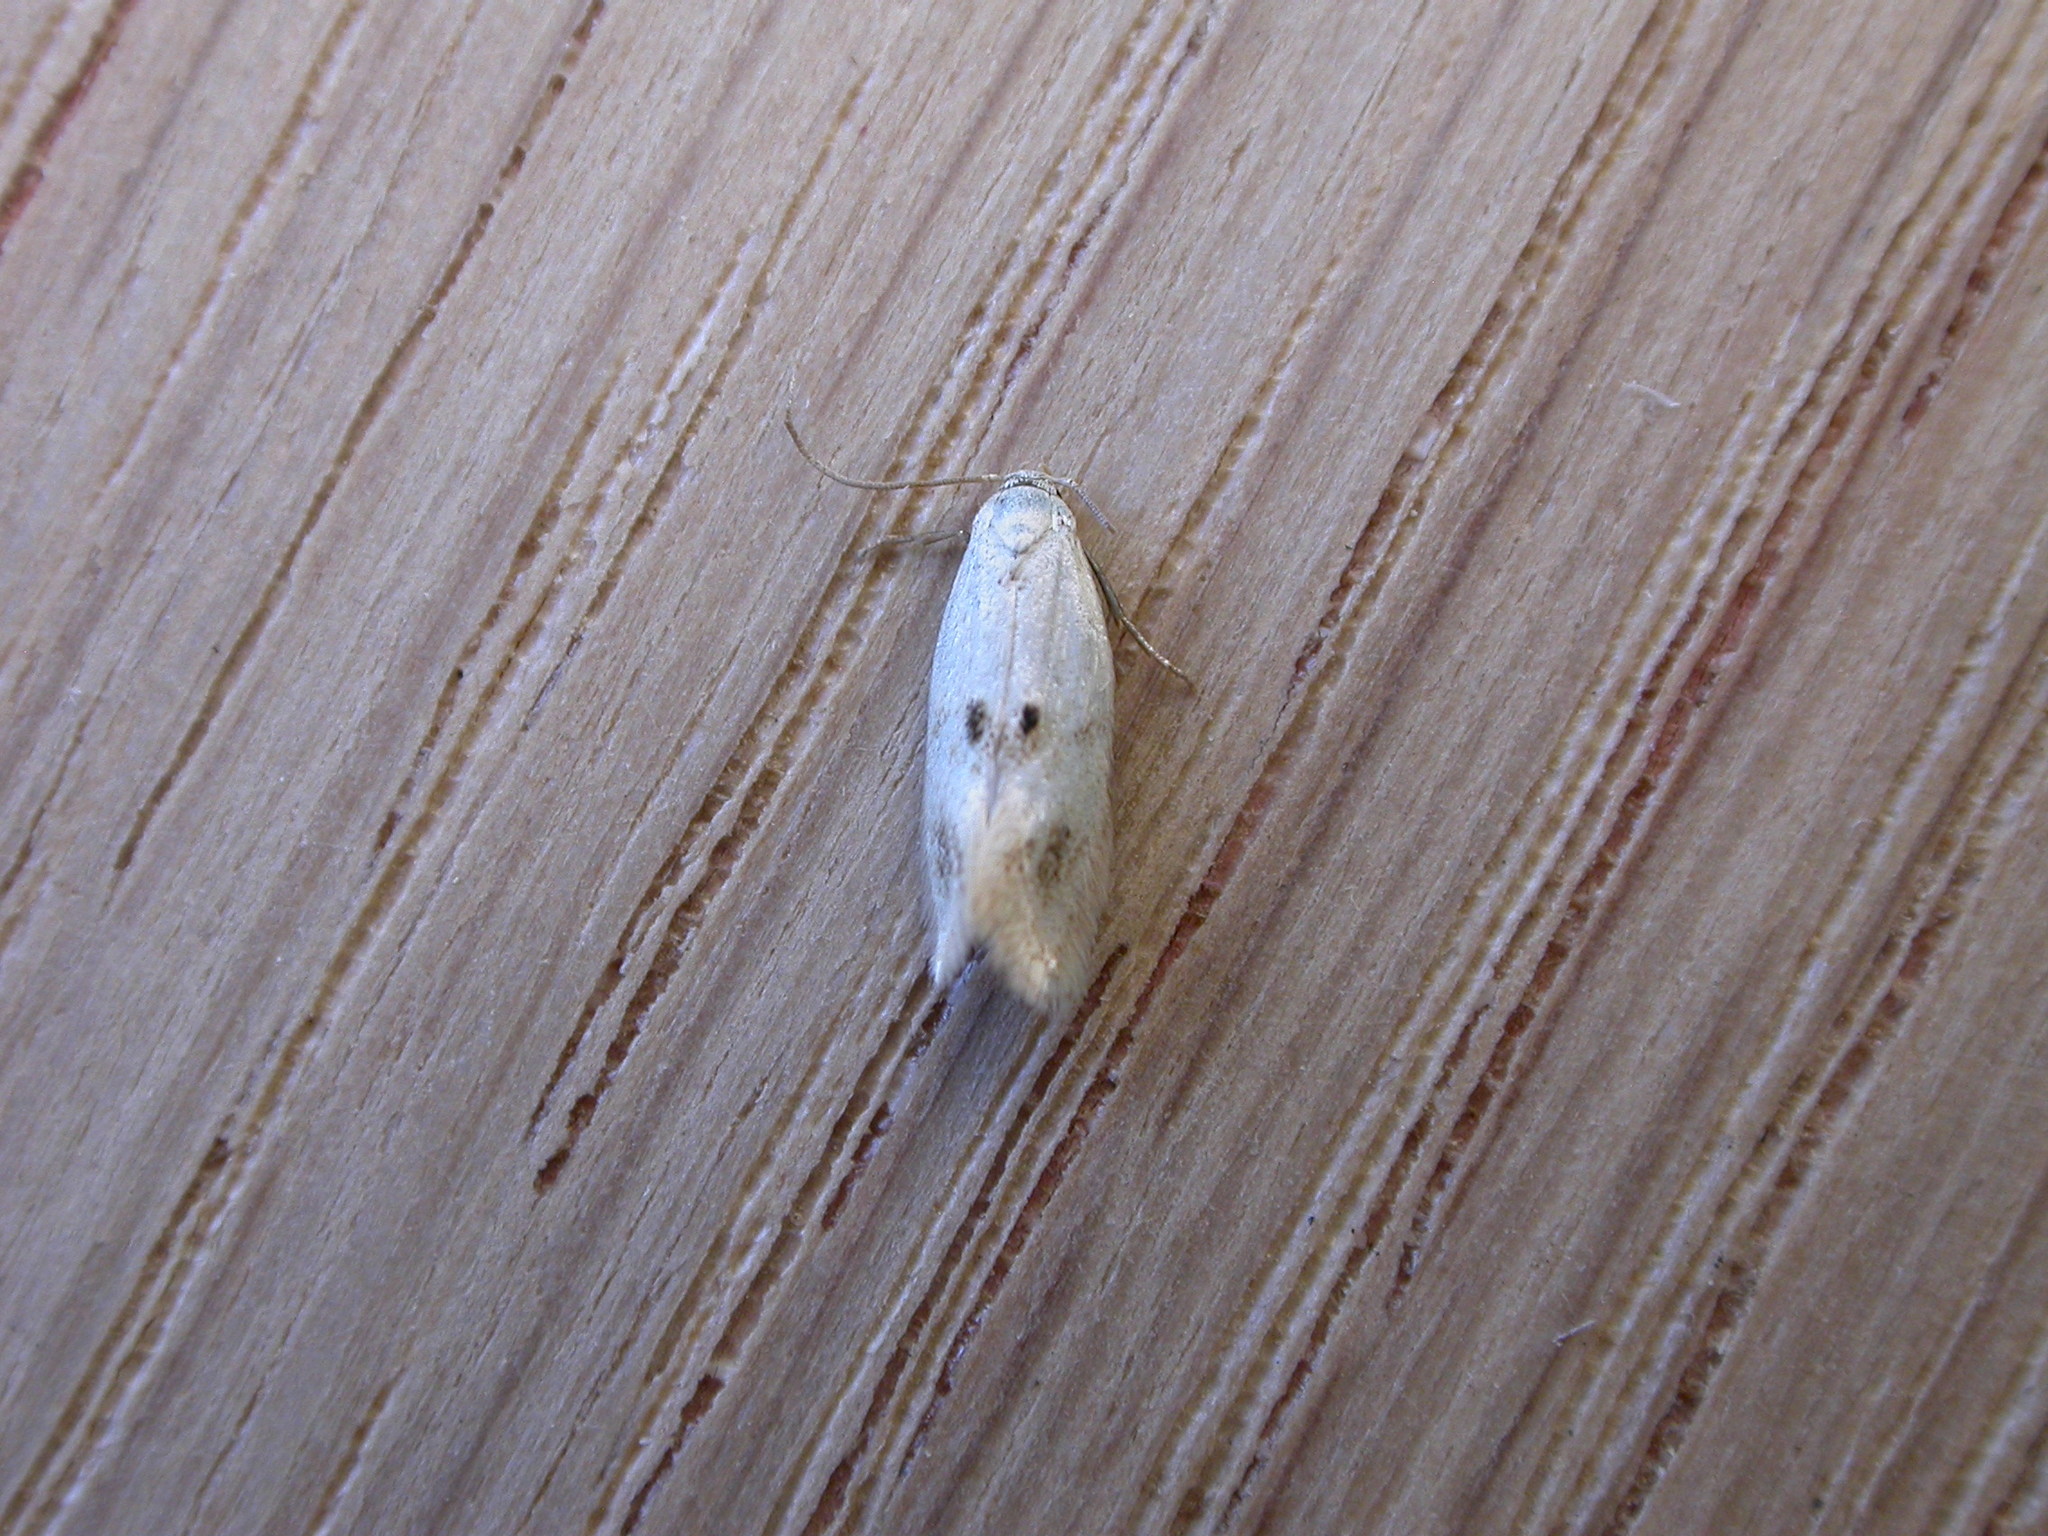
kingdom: Animalia
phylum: Arthropoda
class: Insecta
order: Lepidoptera
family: Elachistidae
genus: Elachista
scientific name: Elachista maculicerusella
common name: Triple-spot dwarf
